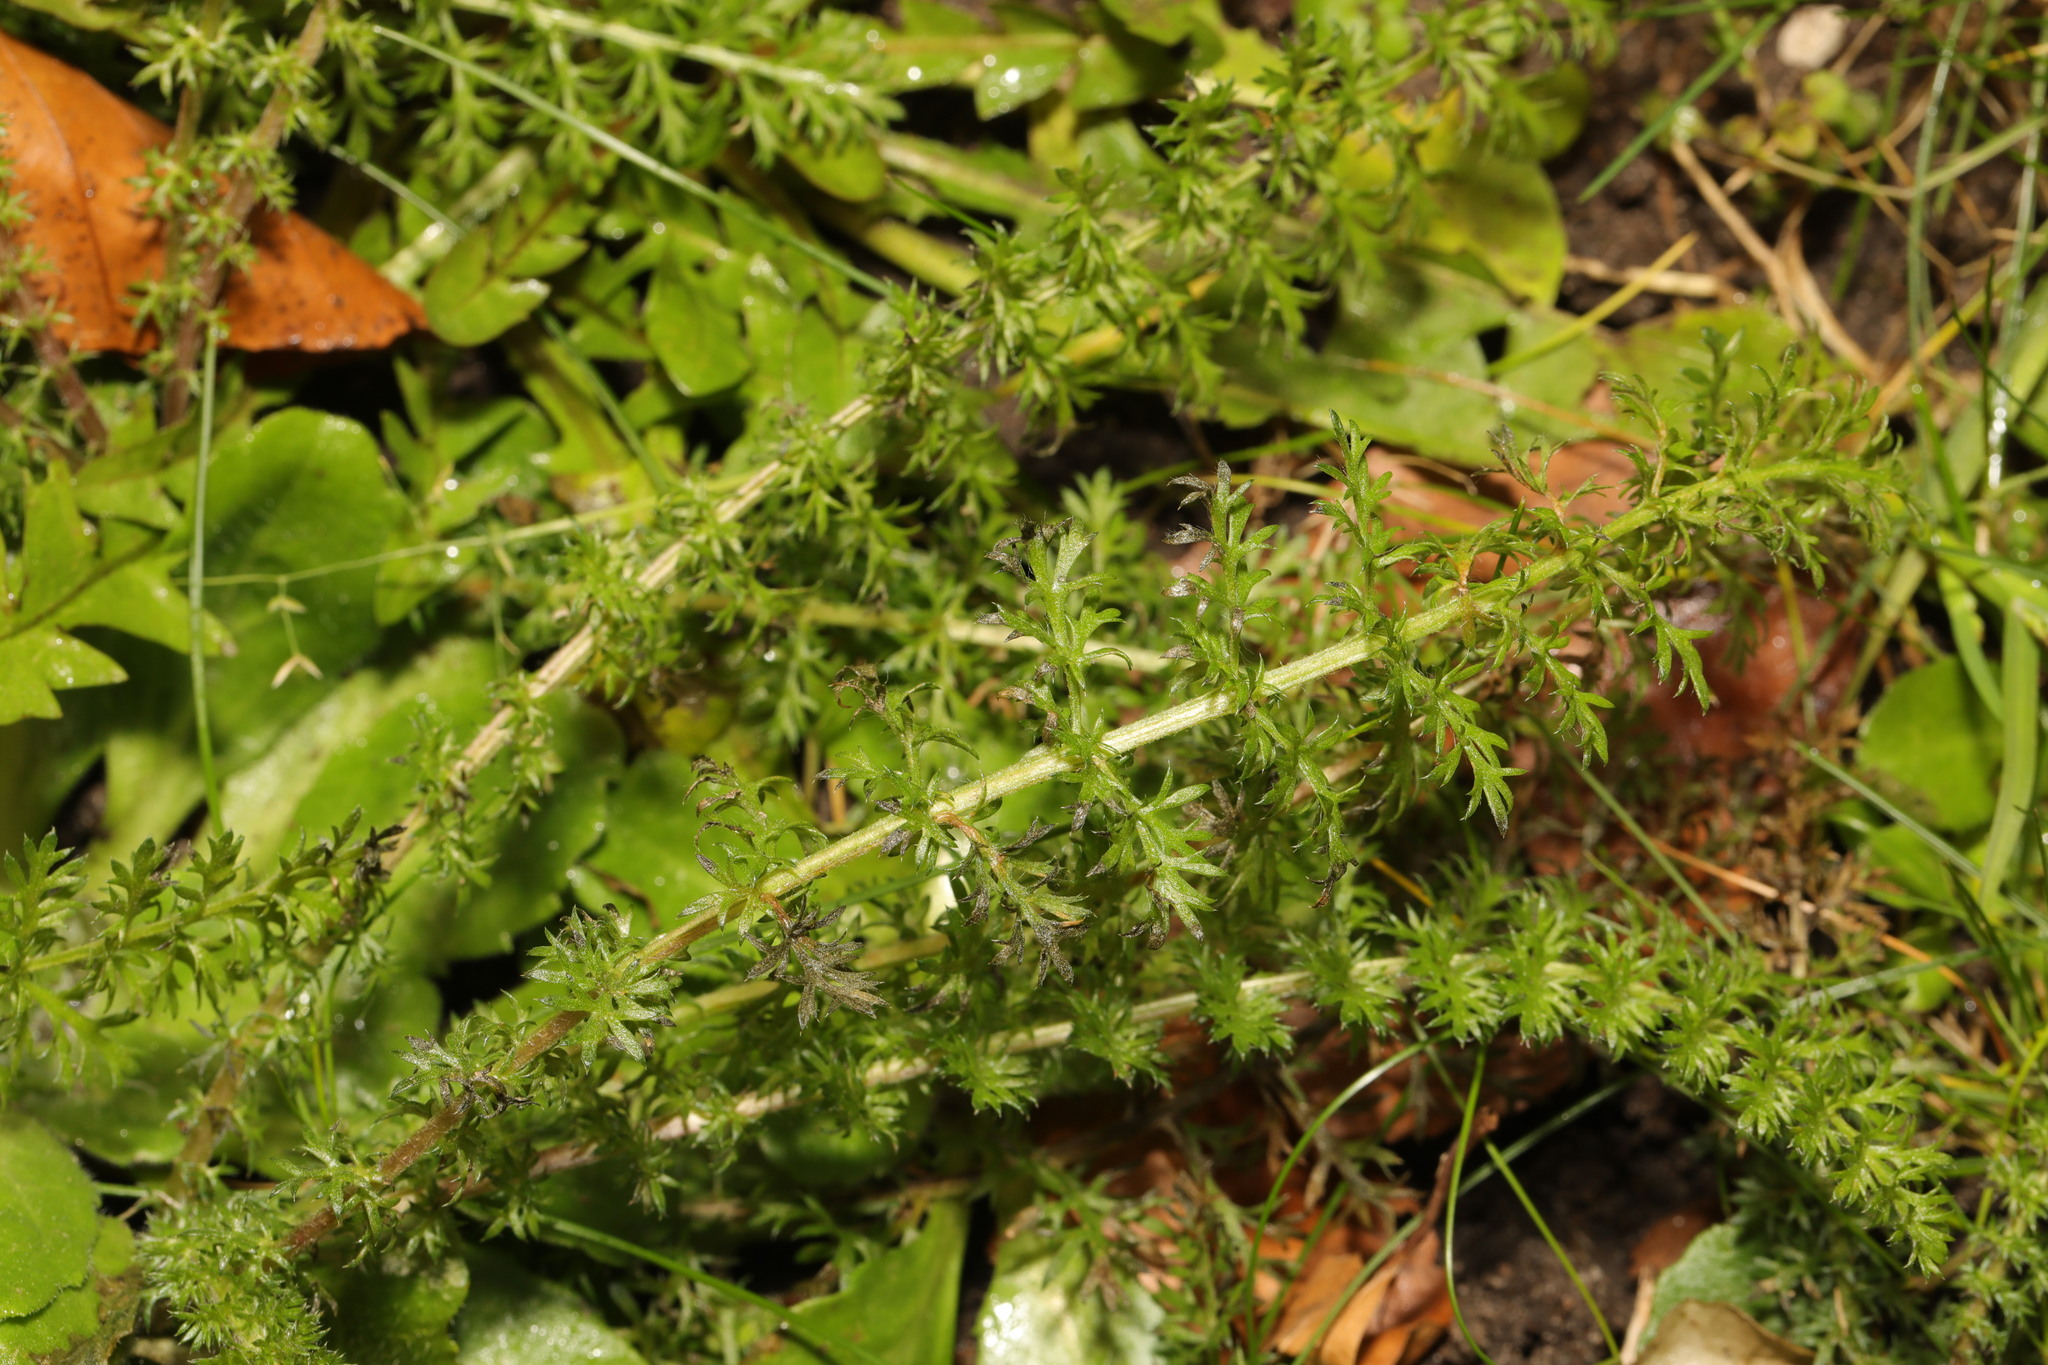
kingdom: Plantae
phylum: Tracheophyta
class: Magnoliopsida
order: Asterales
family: Asteraceae
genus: Achillea
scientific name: Achillea millefolium
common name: Yarrow
